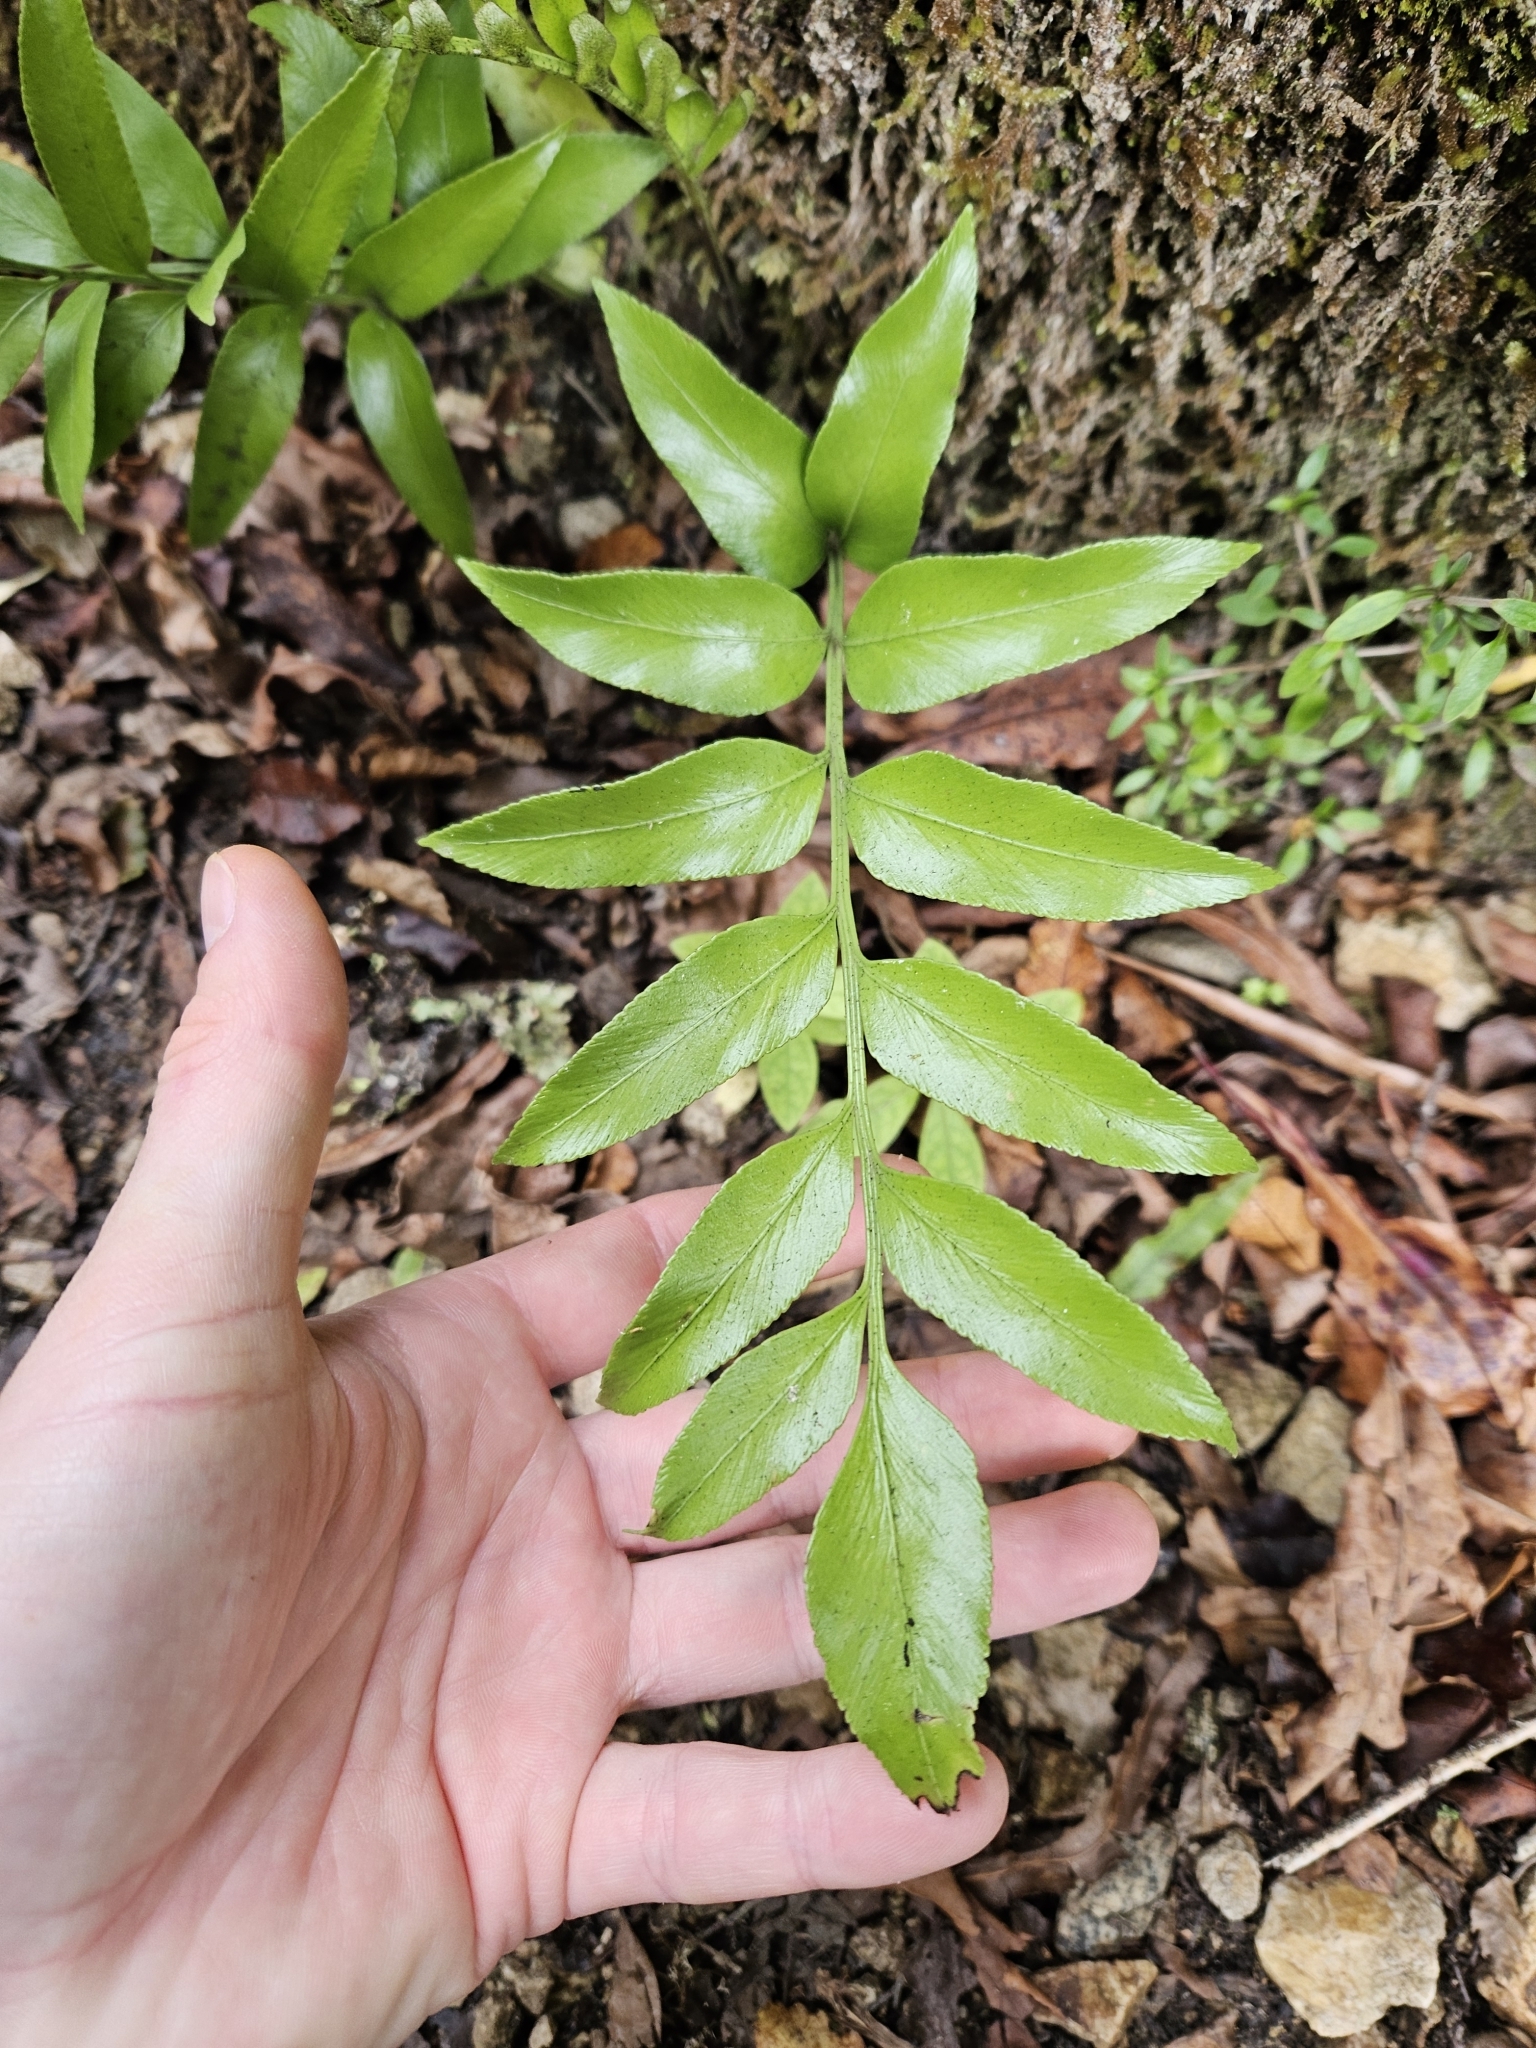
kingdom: Plantae
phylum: Tracheophyta
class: Polypodiopsida
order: Polypodiales
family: Aspleniaceae
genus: Asplenium
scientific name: Asplenium lepidotum
